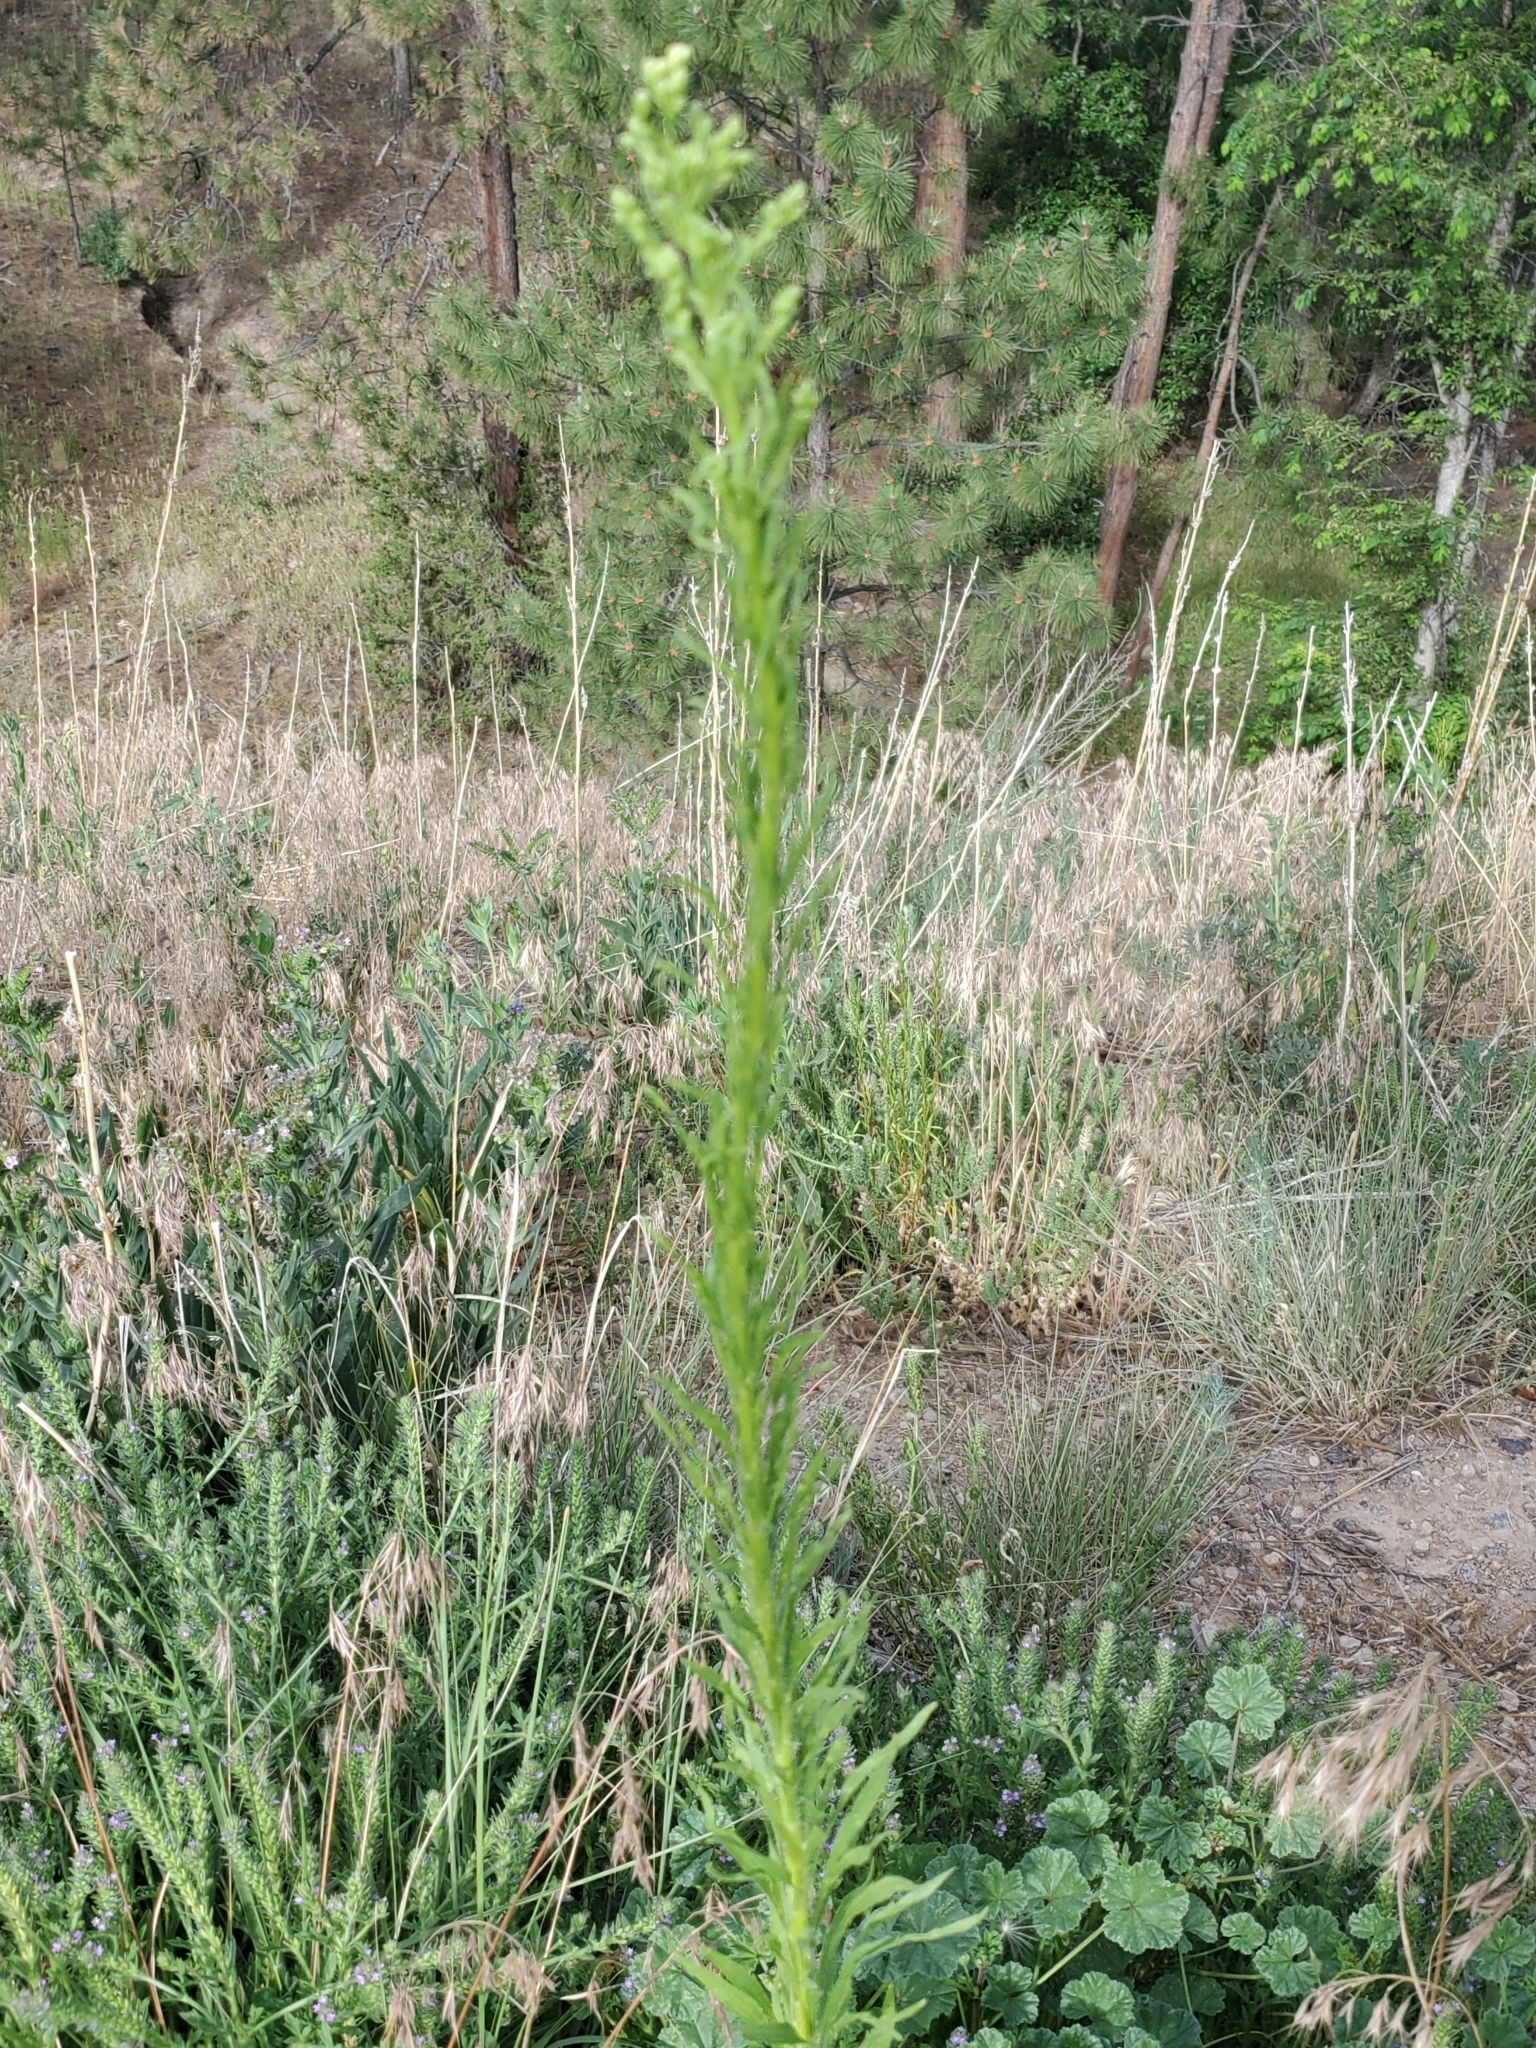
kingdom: Plantae
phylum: Tracheophyta
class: Magnoliopsida
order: Asterales
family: Asteraceae
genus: Erigeron
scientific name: Erigeron canadensis
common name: Canadian fleabane
